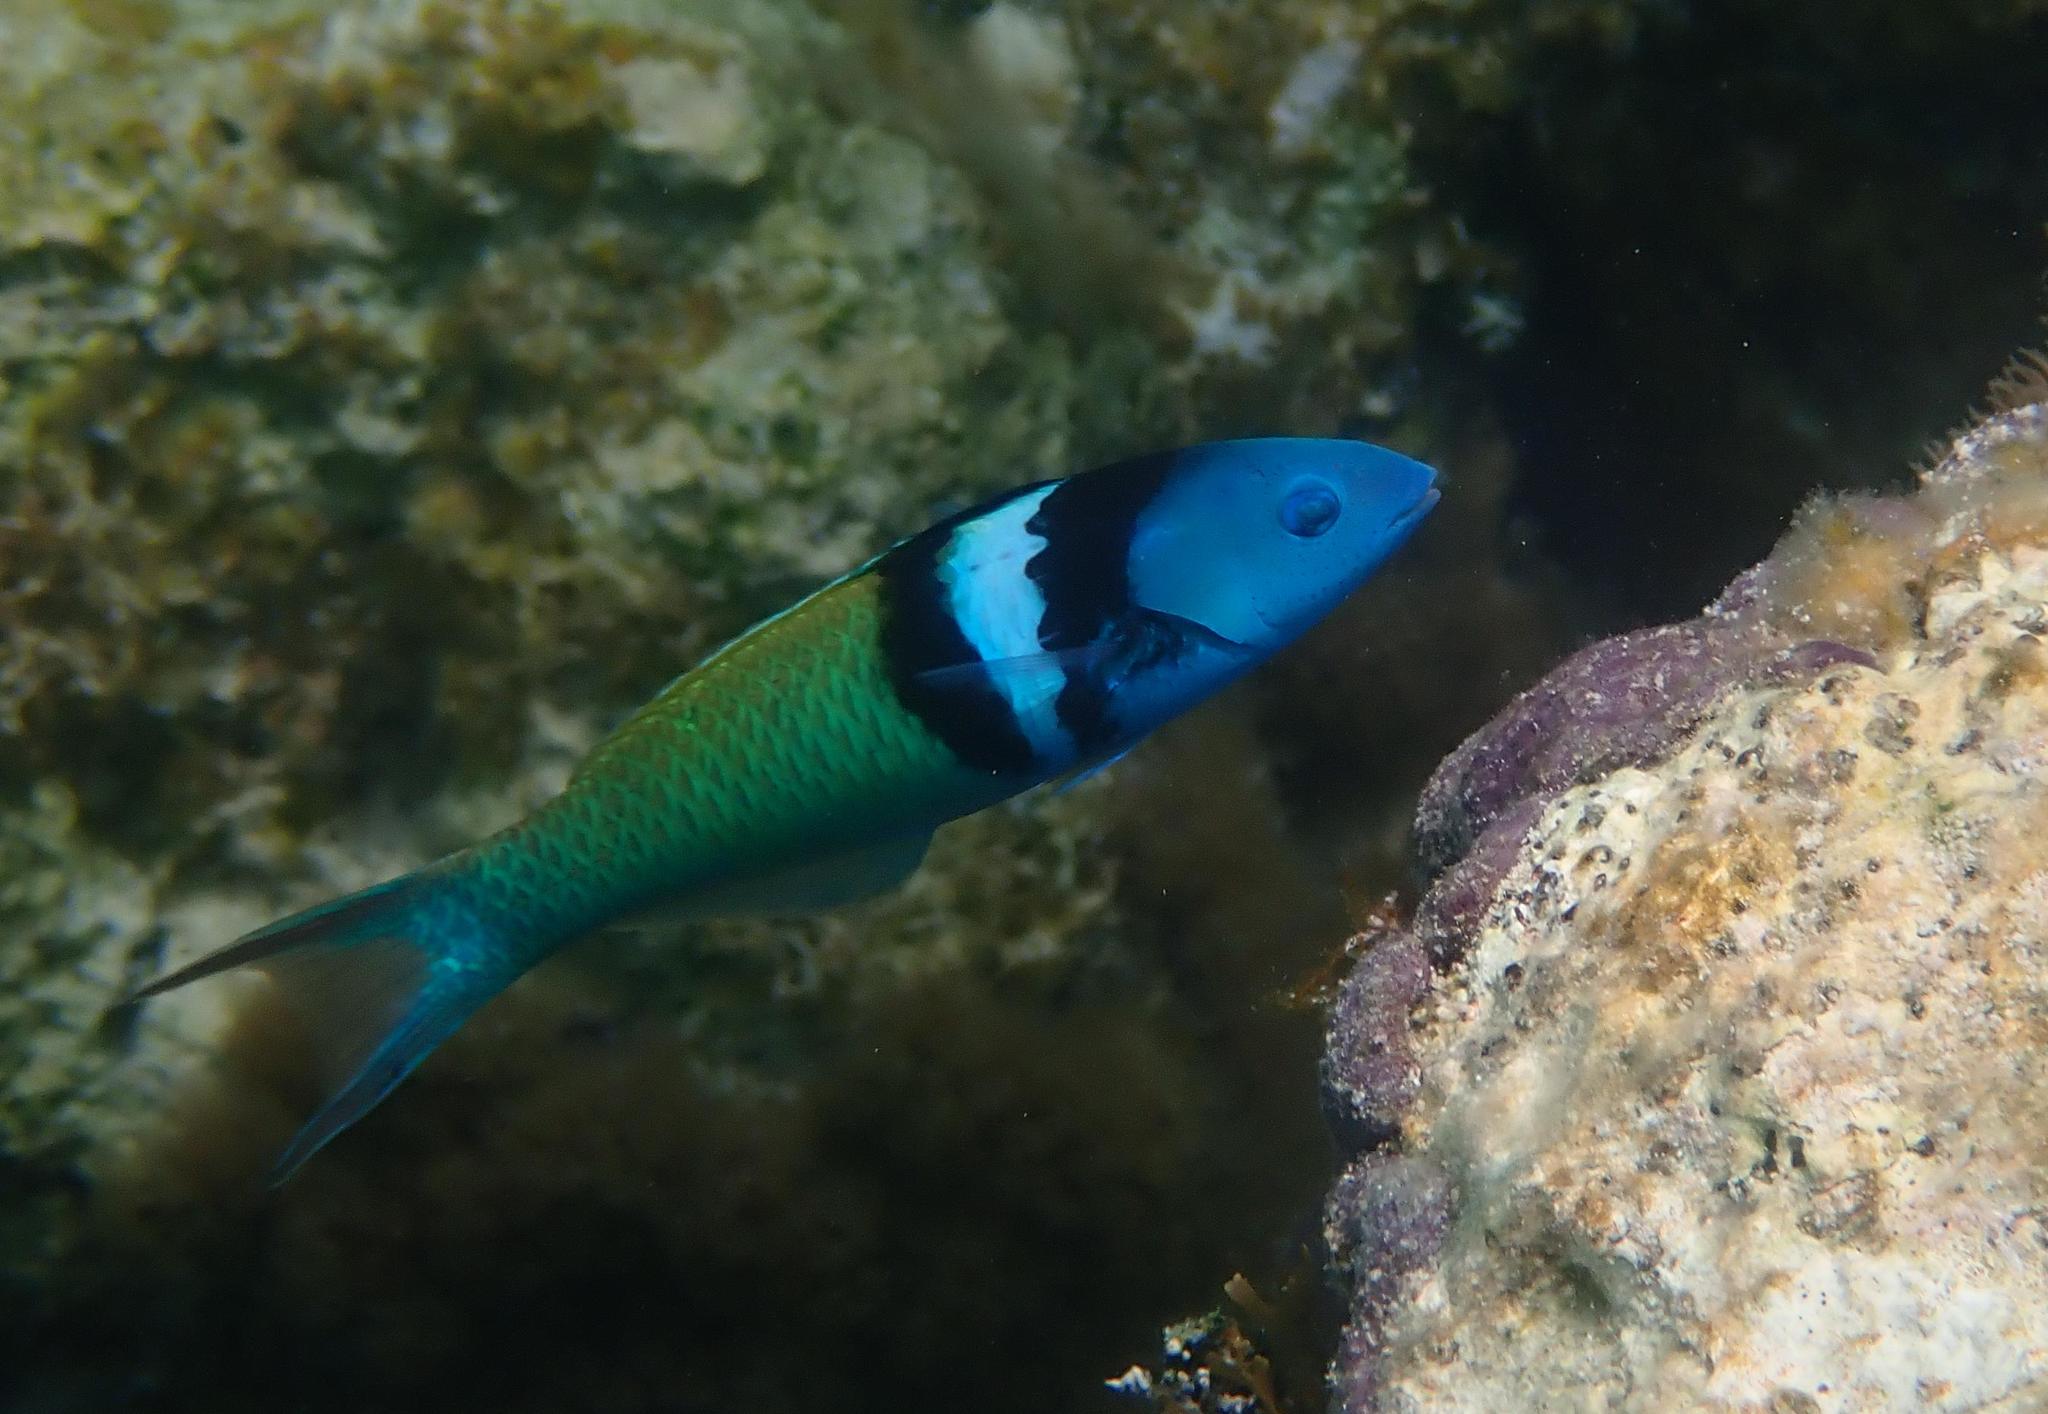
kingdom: Animalia
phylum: Chordata
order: Perciformes
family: Labridae
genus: Thalassoma
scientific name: Thalassoma bifasciatum
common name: Bluehead wrasse
